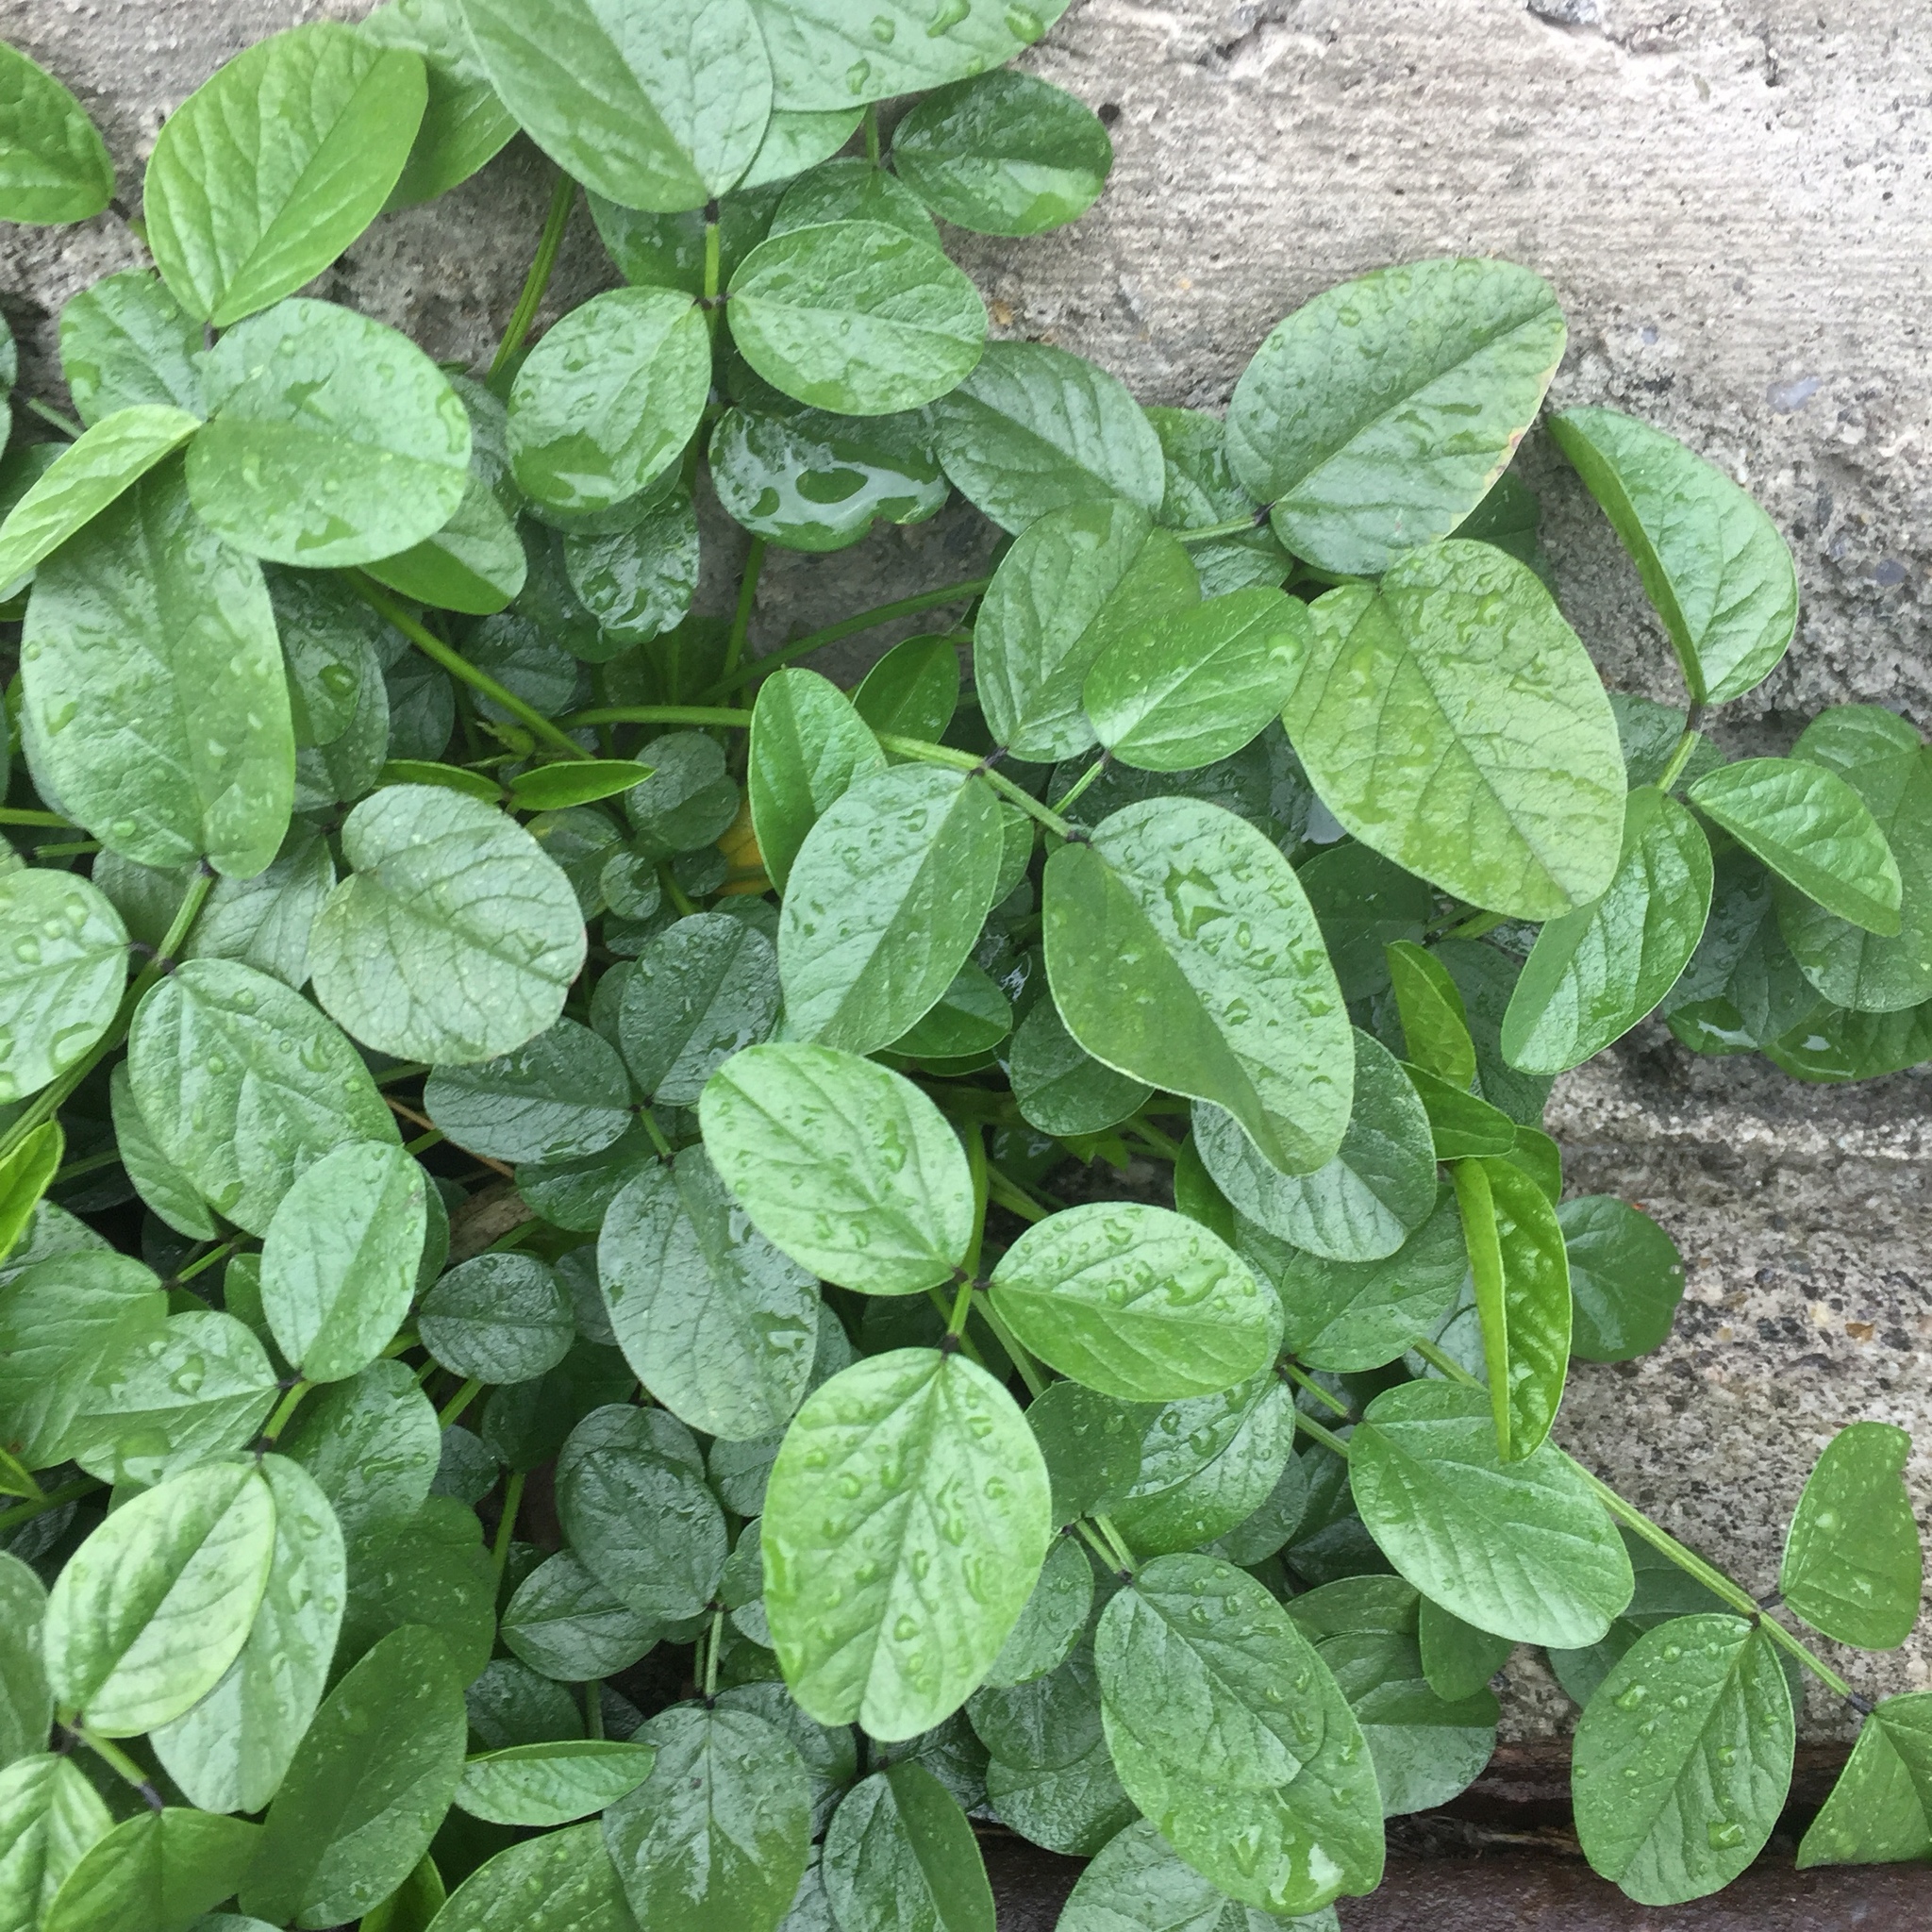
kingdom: Plantae
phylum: Tracheophyta
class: Magnoliopsida
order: Fabales
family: Fabaceae
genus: Bituminaria
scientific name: Bituminaria bituminosa
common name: Arabian pea
